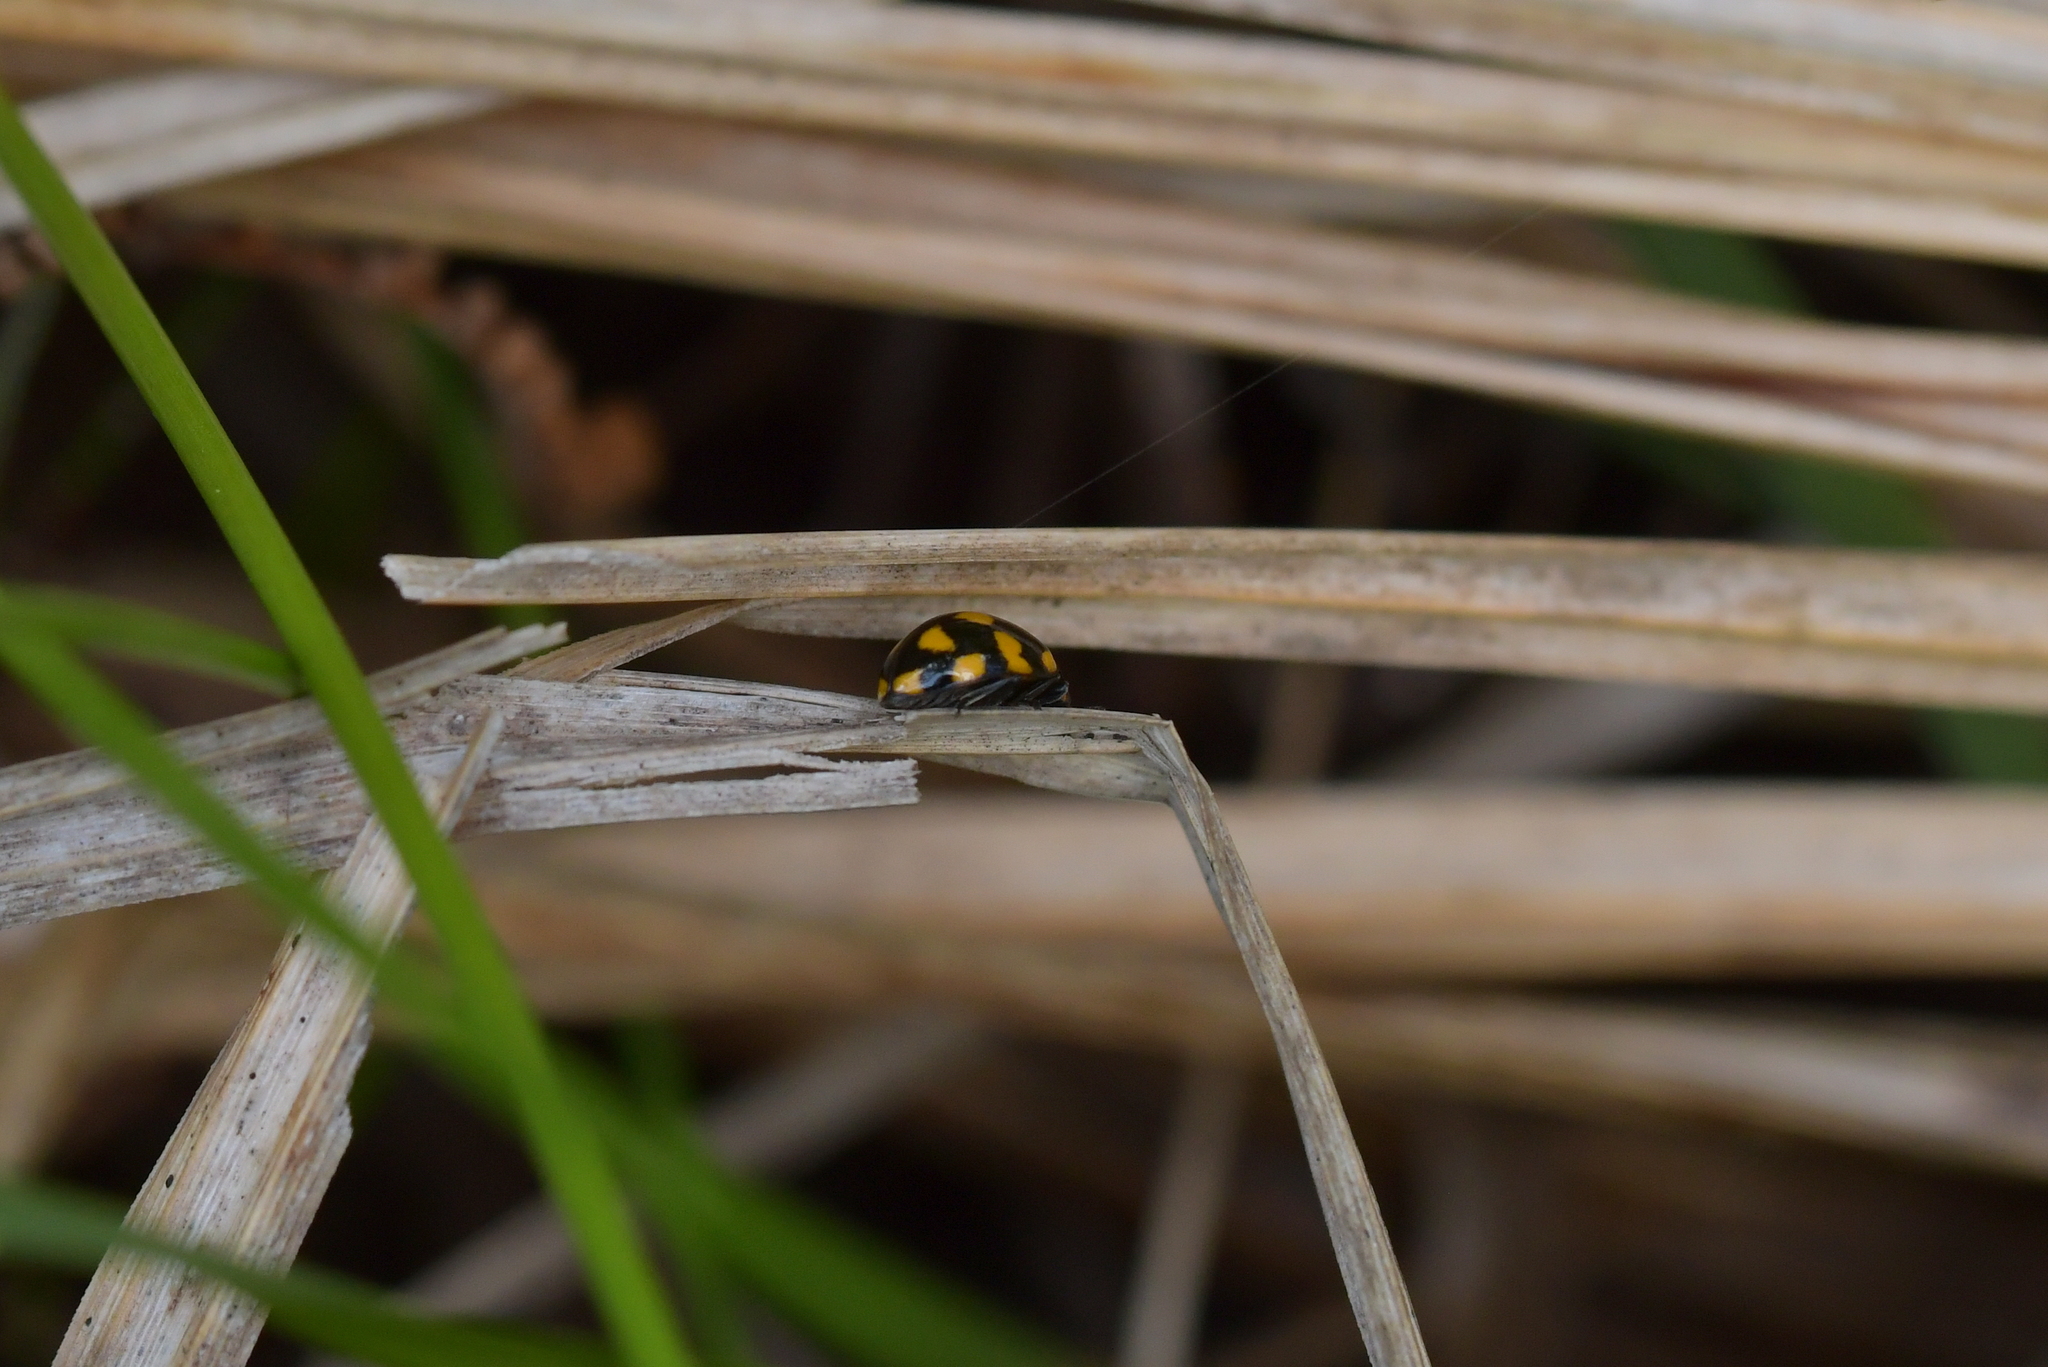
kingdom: Animalia
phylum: Arthropoda
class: Insecta
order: Coleoptera
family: Coccinellidae
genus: Coccinella
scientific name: Coccinella leonina
